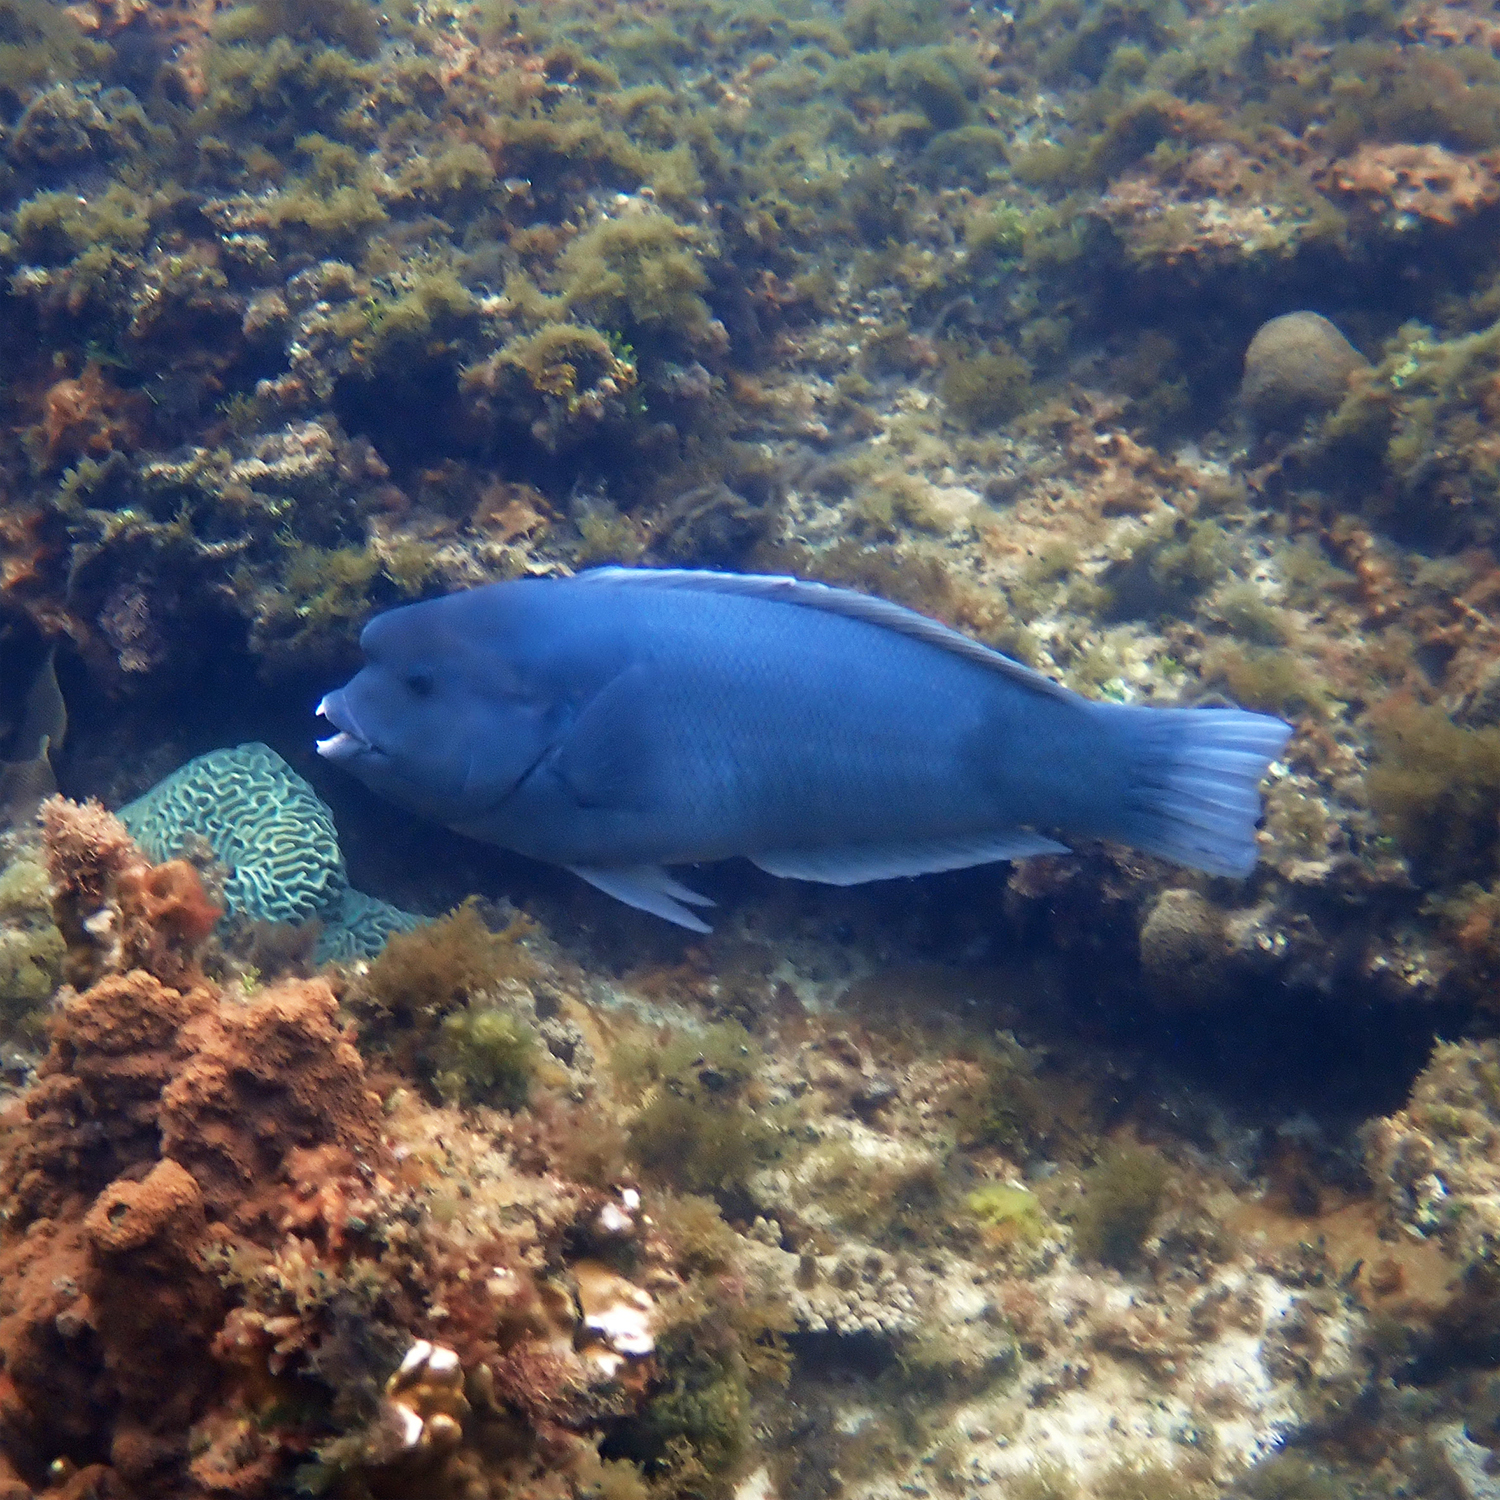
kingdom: Animalia
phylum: Chordata
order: Perciformes
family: Labridae
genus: Coris
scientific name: Coris bulbifrons
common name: Doubleheader
